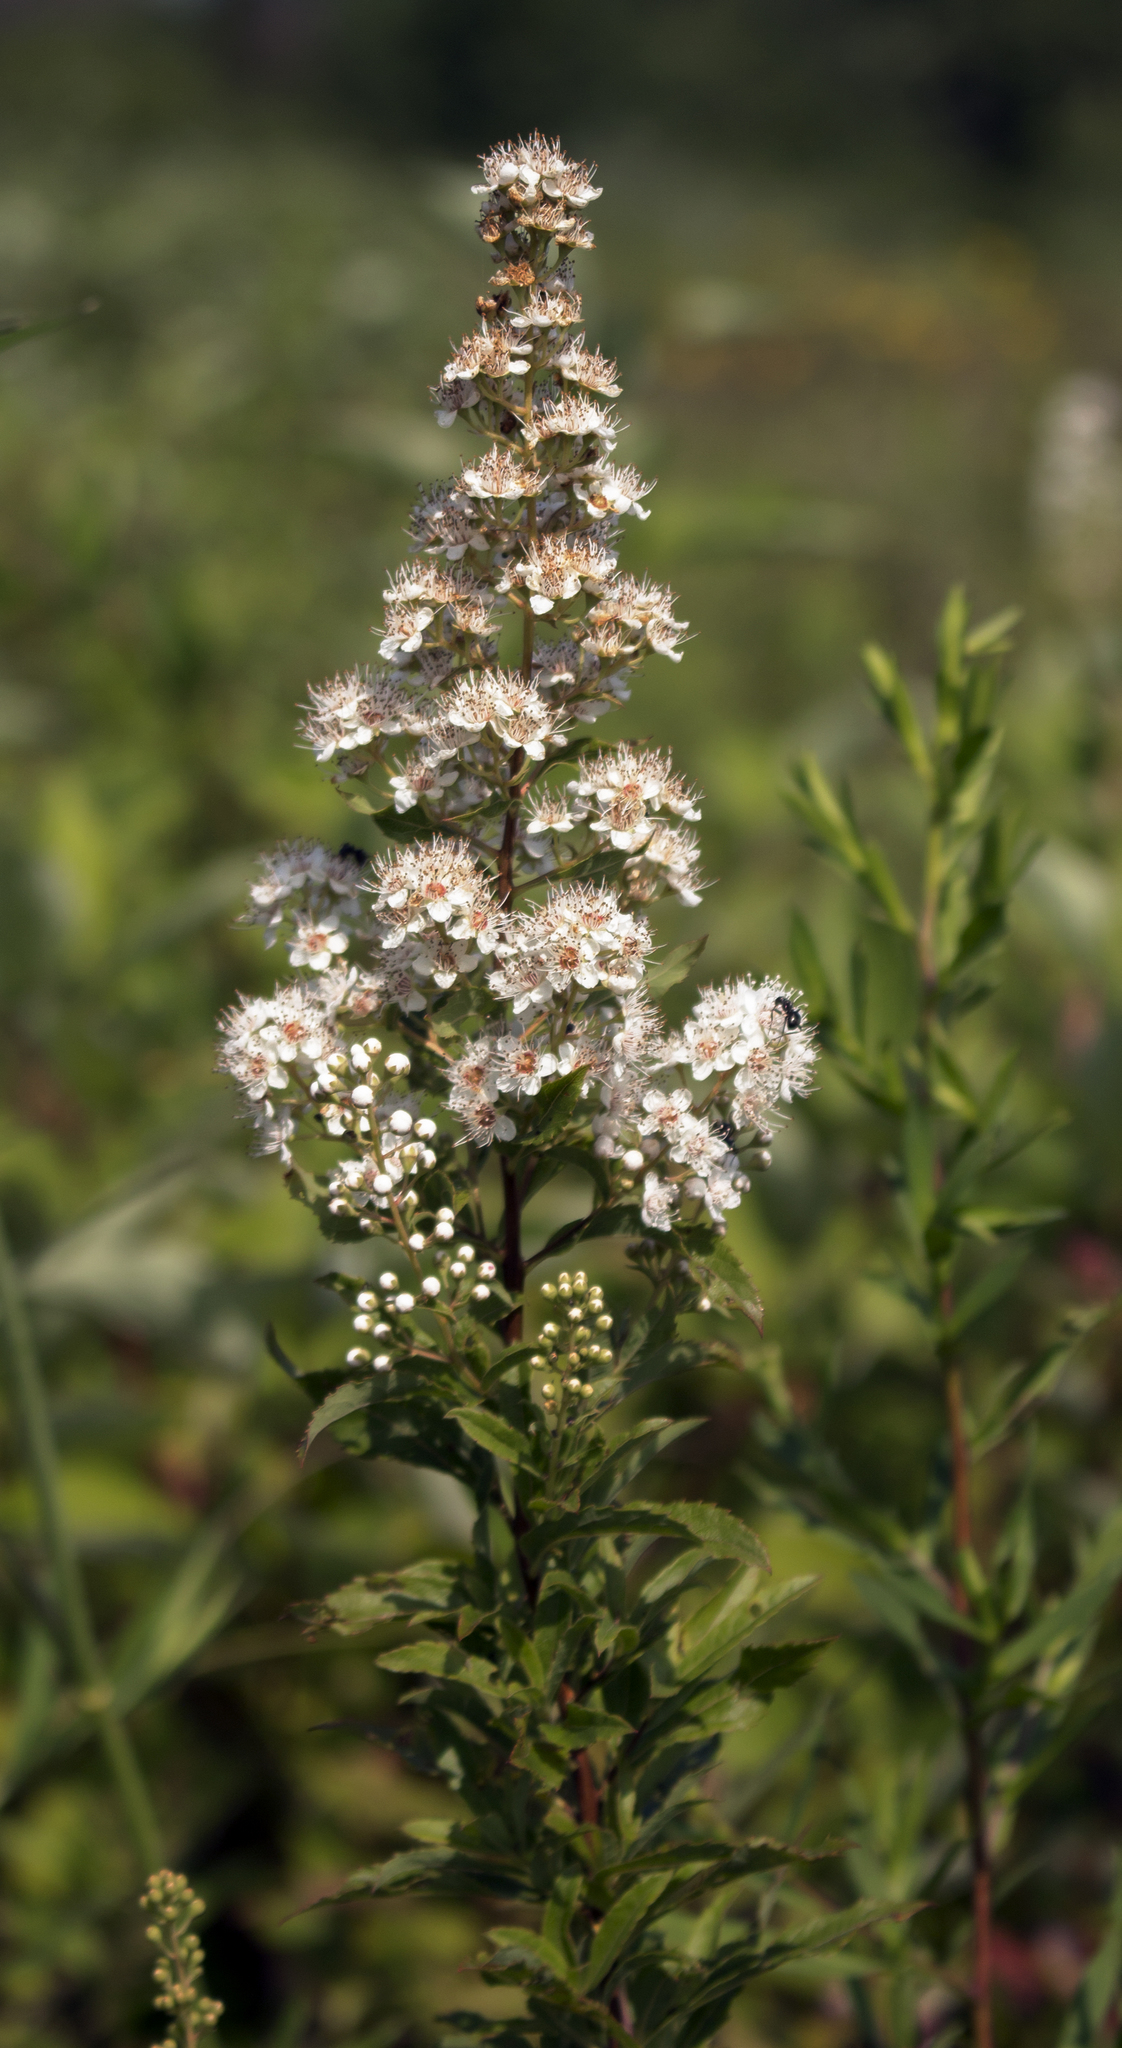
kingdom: Plantae
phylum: Tracheophyta
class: Magnoliopsida
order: Rosales
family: Rosaceae
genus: Spiraea
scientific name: Spiraea alba
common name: Pale bridewort
